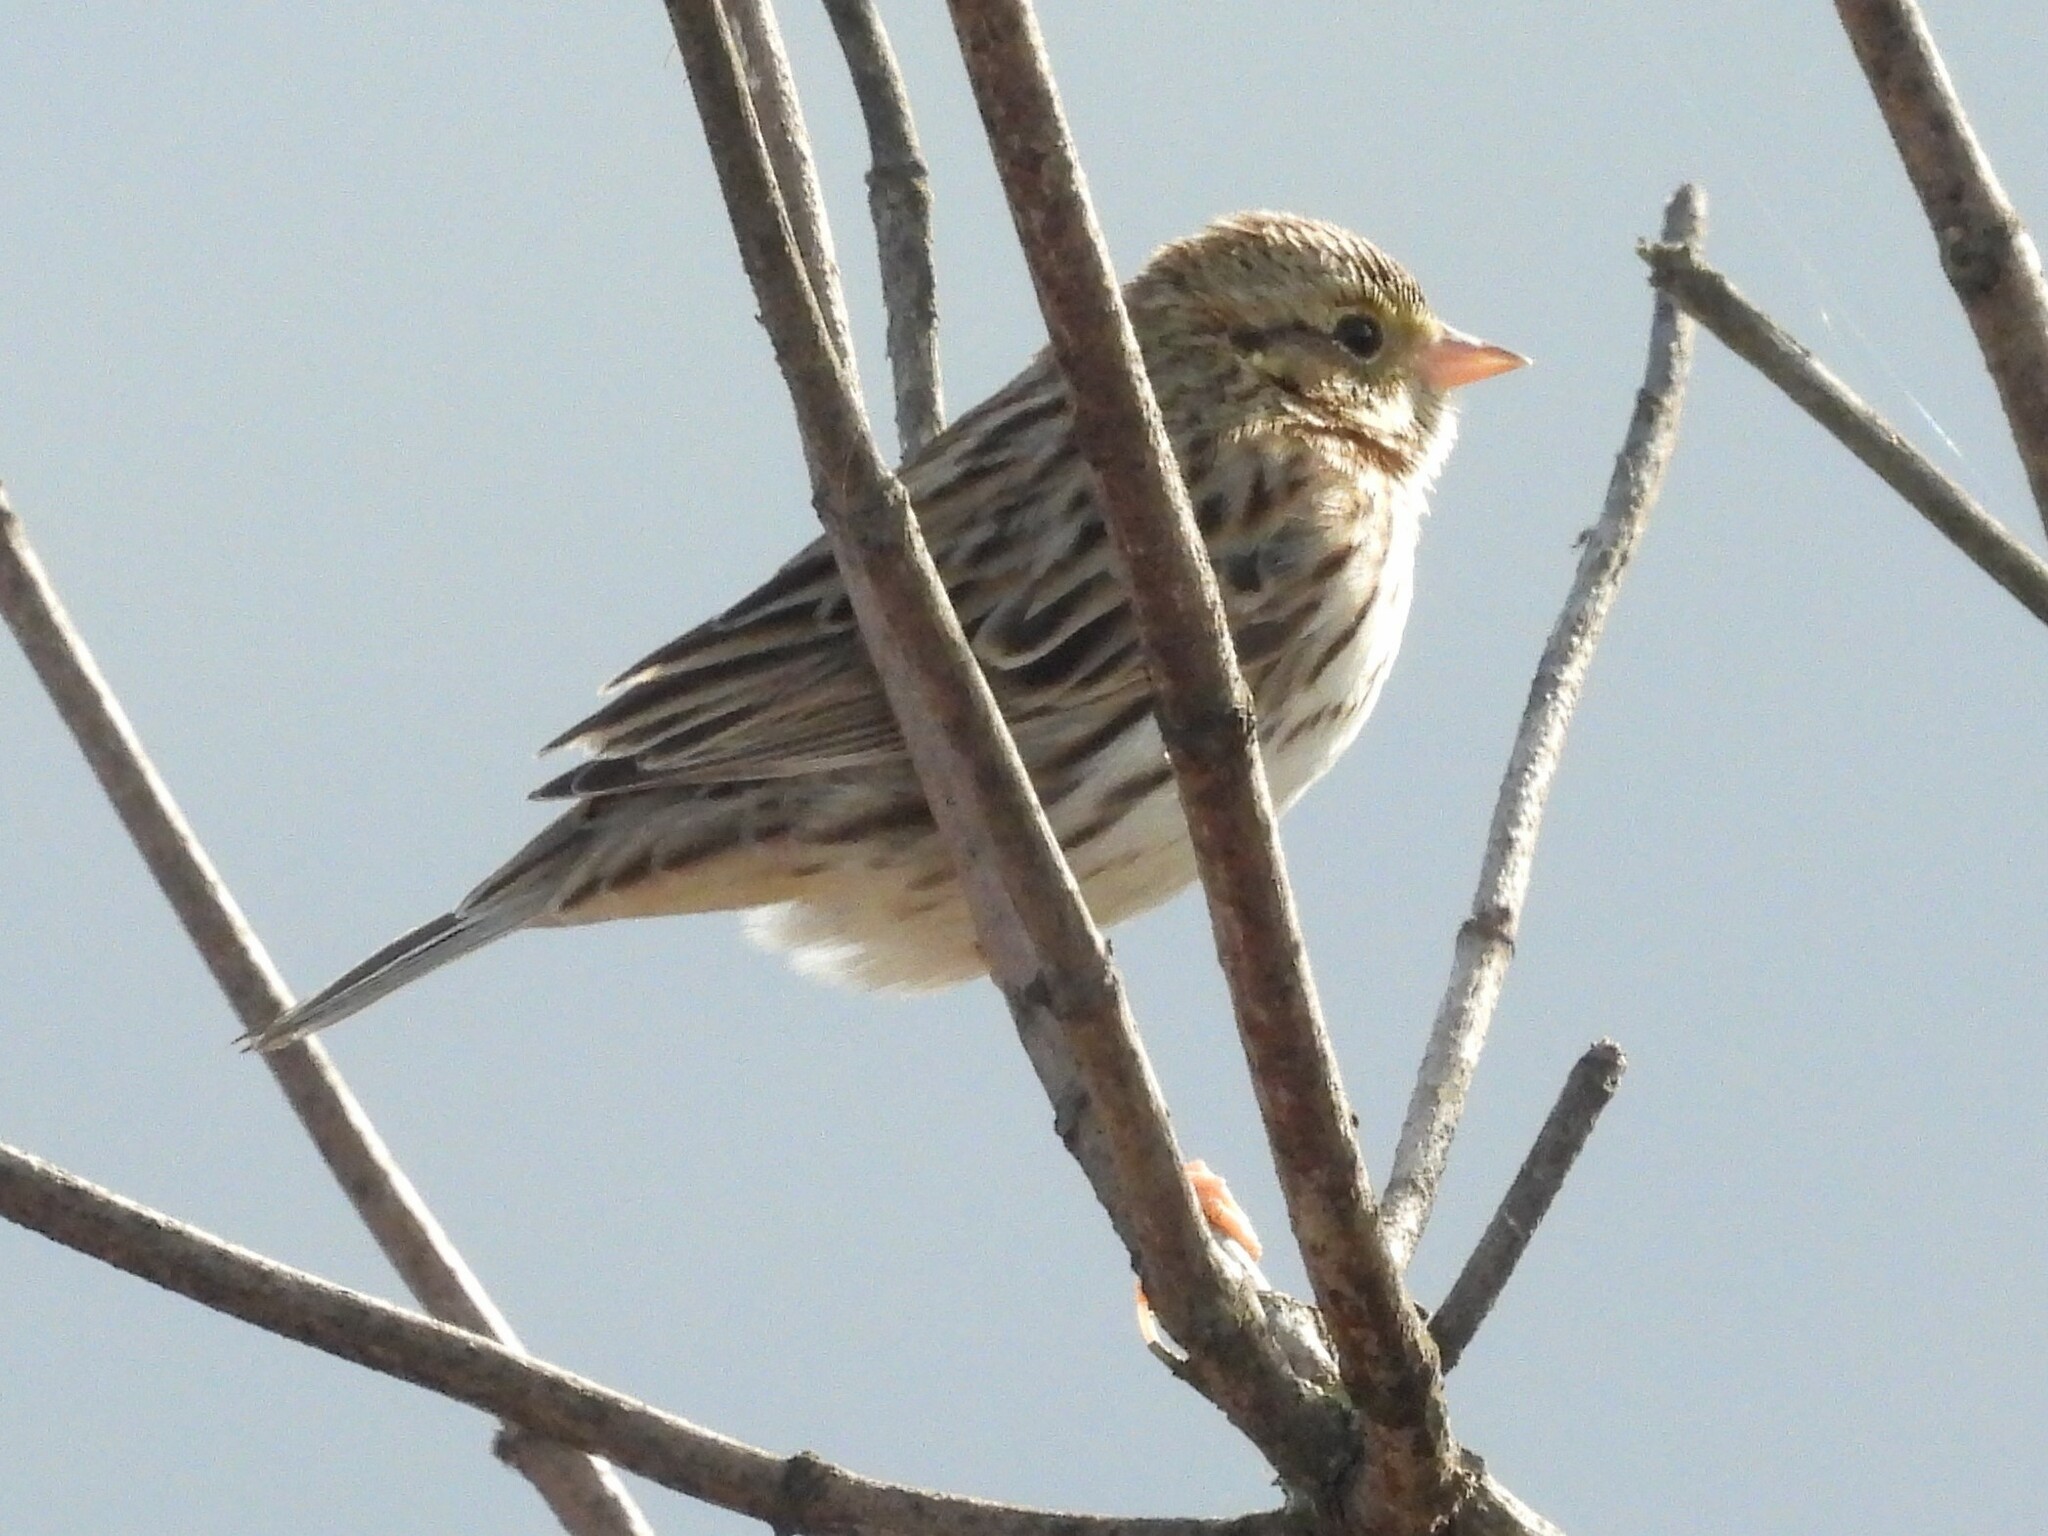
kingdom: Animalia
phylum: Chordata
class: Aves
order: Passeriformes
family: Passerellidae
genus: Passerculus
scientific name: Passerculus sandwichensis
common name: Savannah sparrow
